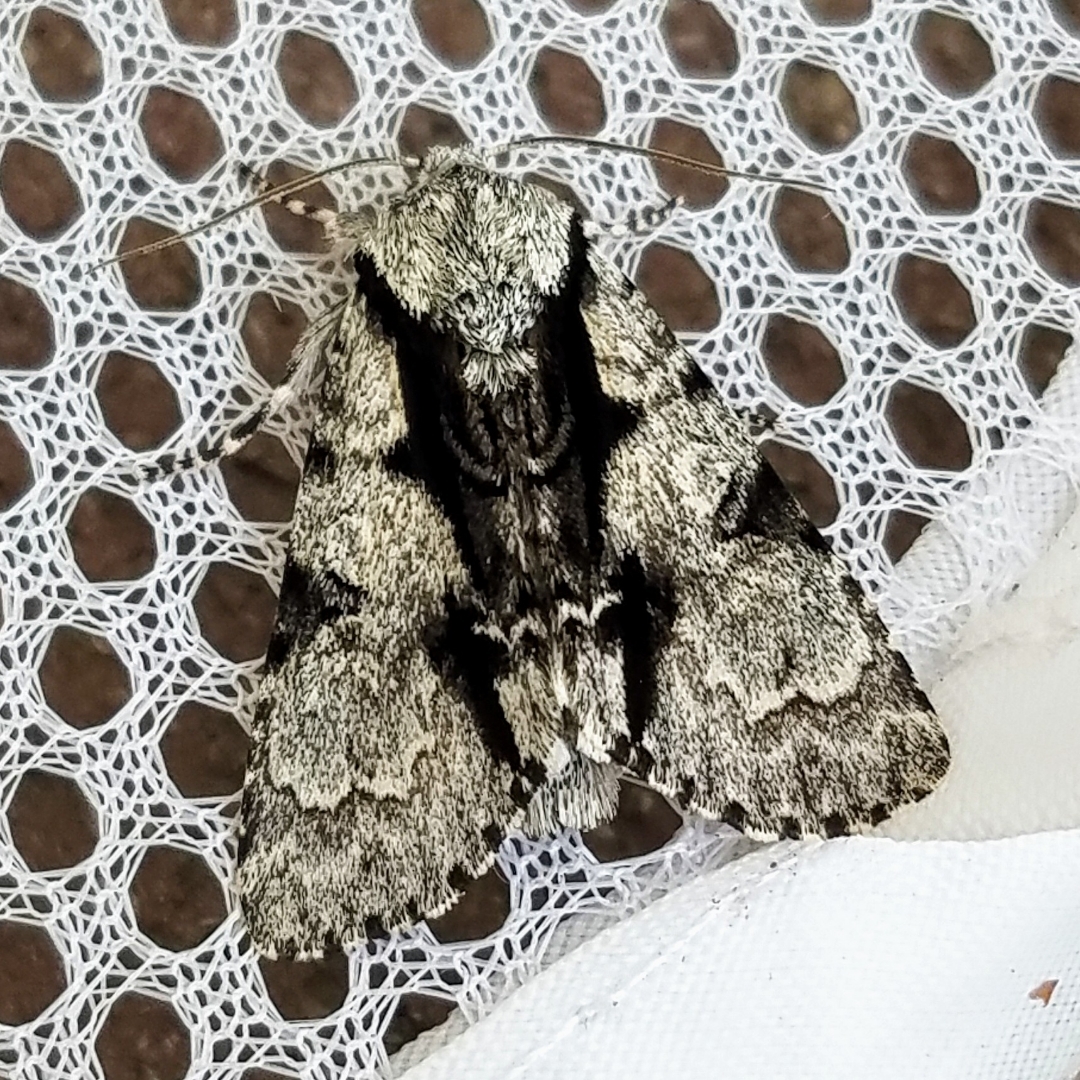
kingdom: Animalia
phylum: Arthropoda
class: Insecta
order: Lepidoptera
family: Noctuidae
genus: Acronicta
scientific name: Acronicta funeralis
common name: Funerary dagger
